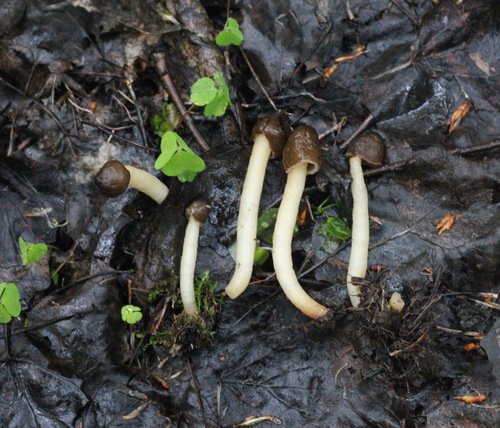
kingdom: Fungi
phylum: Ascomycota
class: Pezizomycetes
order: Pezizales
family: Morchellaceae
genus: Verpa
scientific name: Verpa conica
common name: Thimble morel
